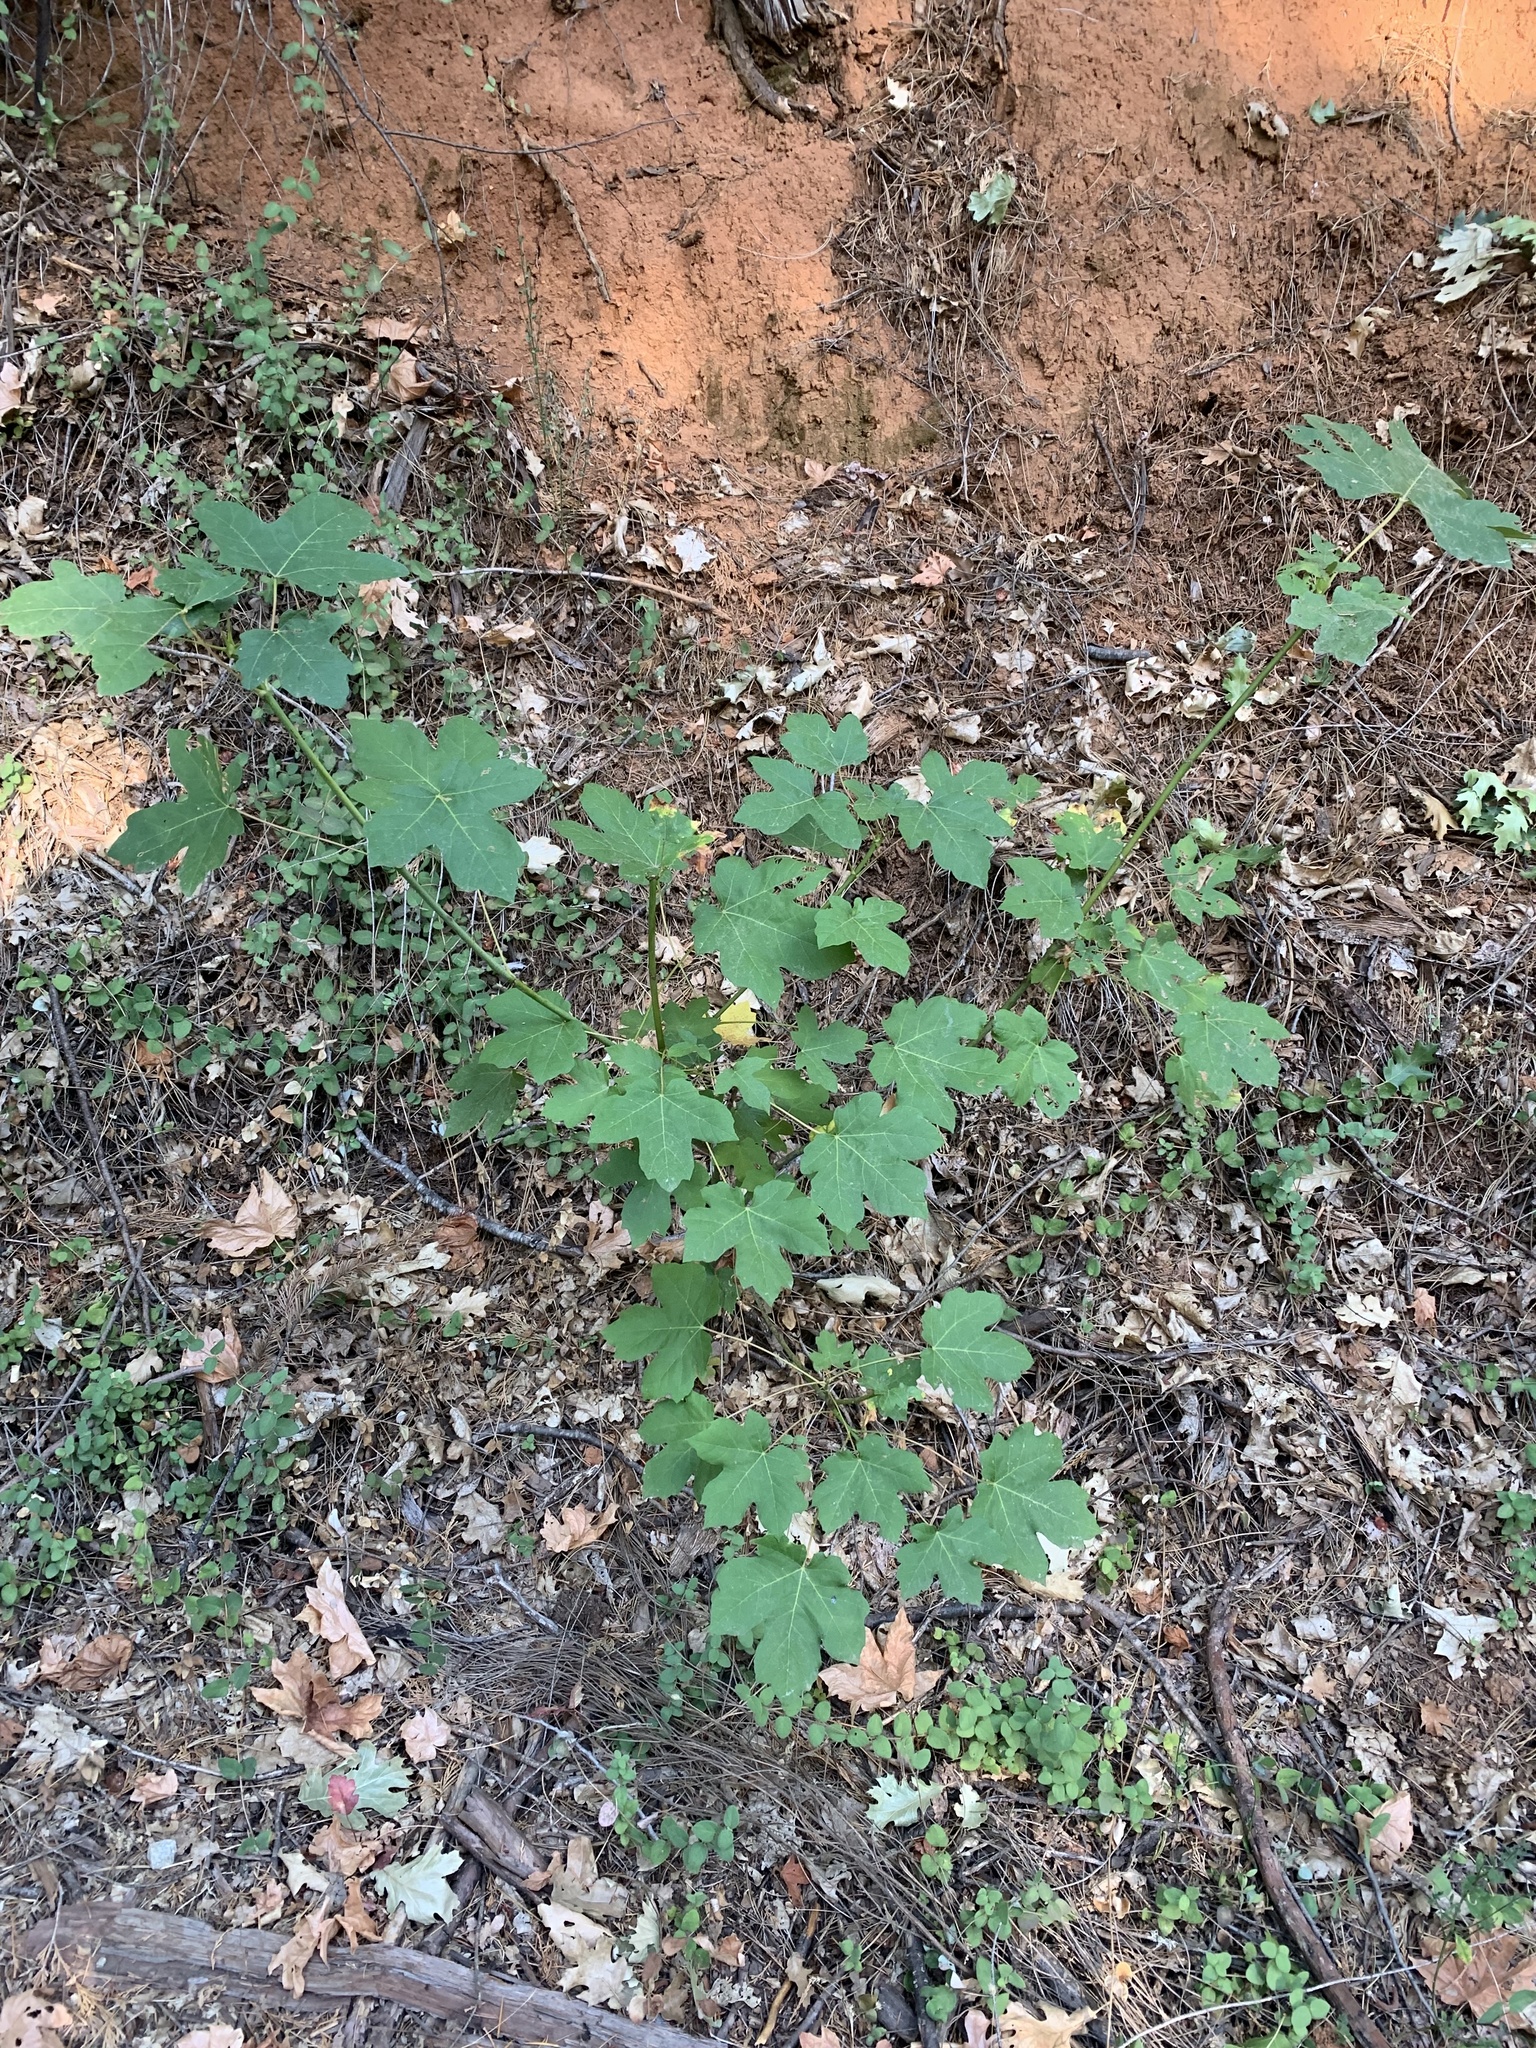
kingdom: Plantae
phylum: Tracheophyta
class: Magnoliopsida
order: Sapindales
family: Sapindaceae
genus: Acer
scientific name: Acer macrophyllum
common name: Oregon maple
